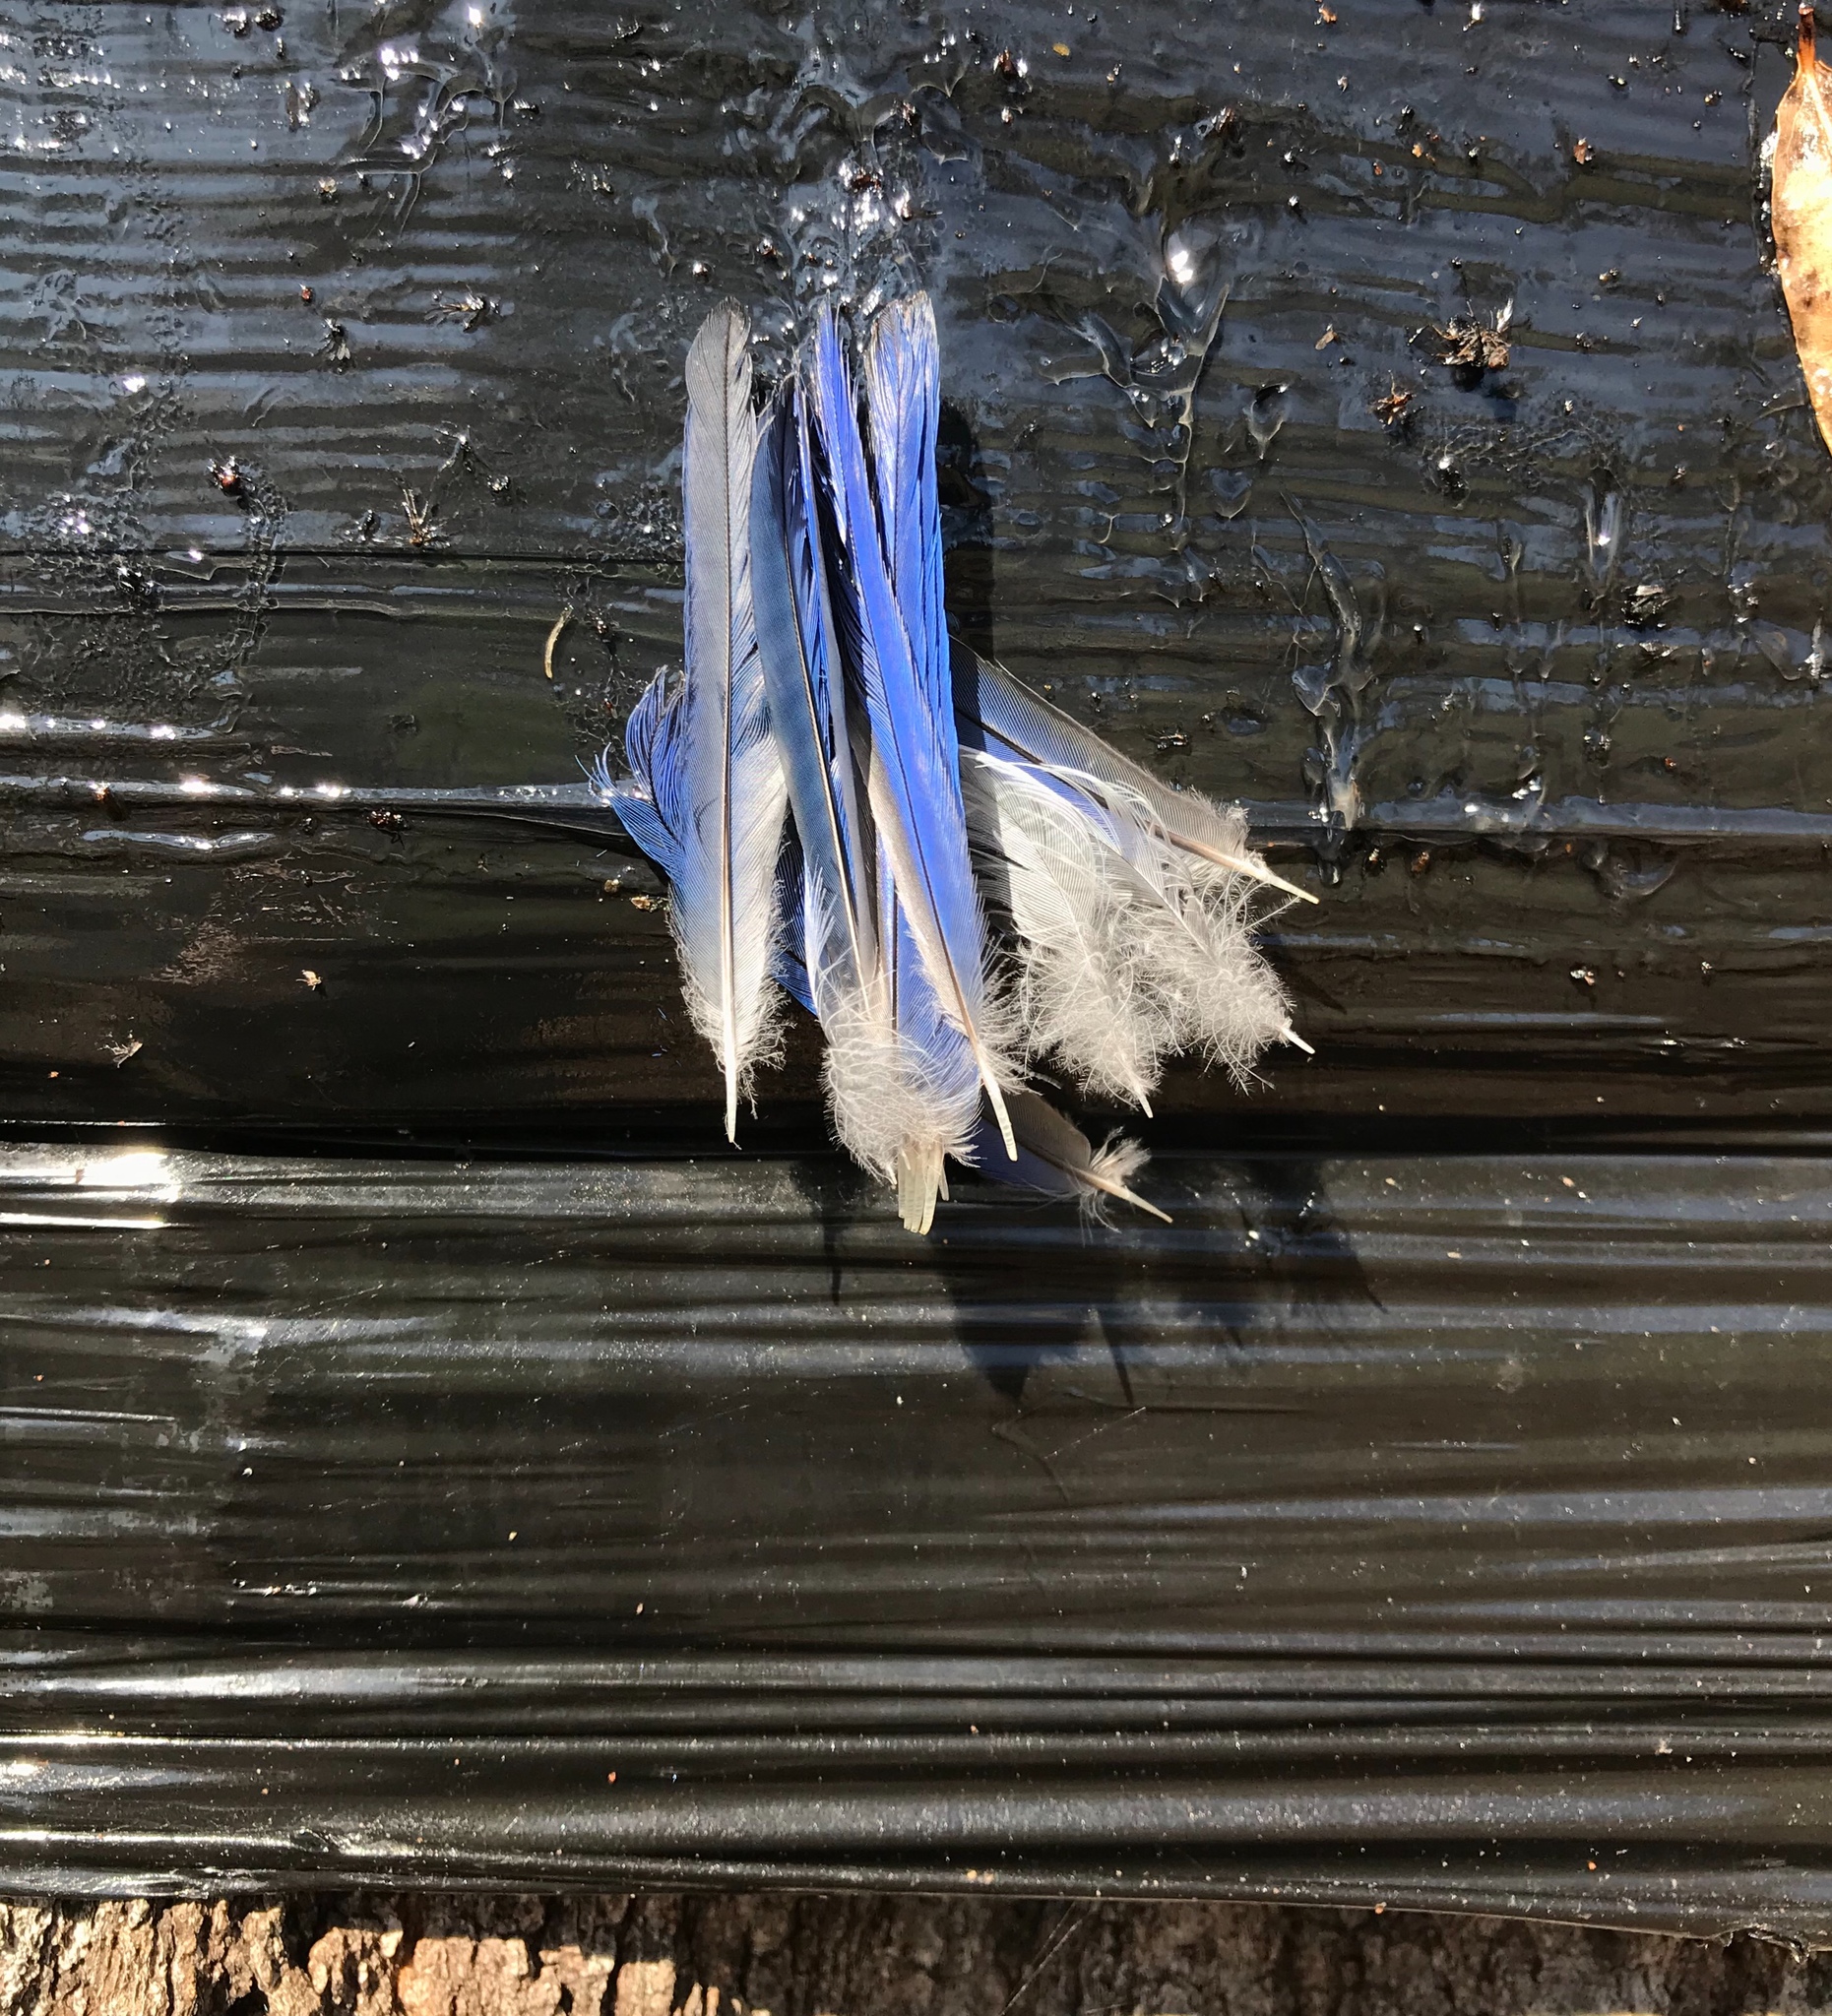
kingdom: Animalia
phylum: Chordata
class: Aves
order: Passeriformes
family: Turdidae
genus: Sialia
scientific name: Sialia sialis
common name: Eastern bluebird
